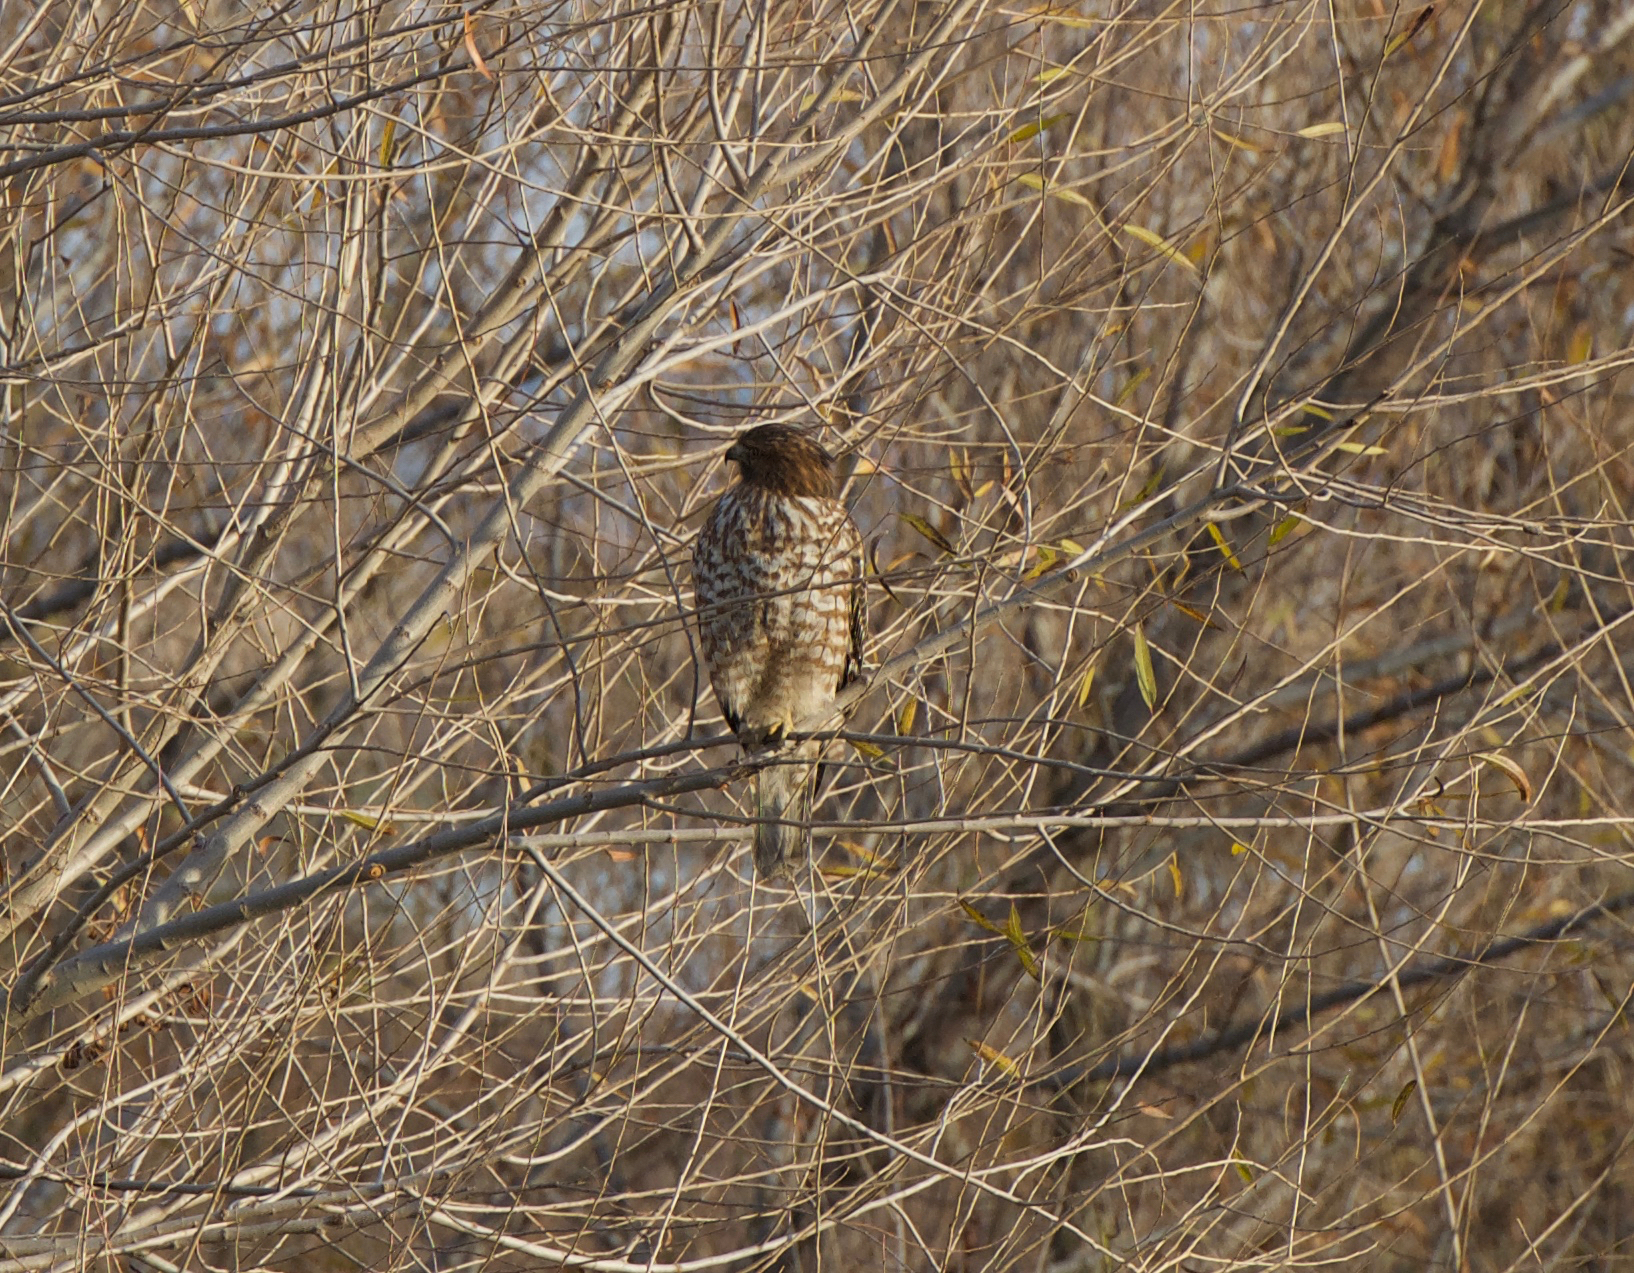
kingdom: Animalia
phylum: Chordata
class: Aves
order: Accipitriformes
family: Accipitridae
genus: Buteo
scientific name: Buteo lineatus
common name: Red-shouldered hawk
